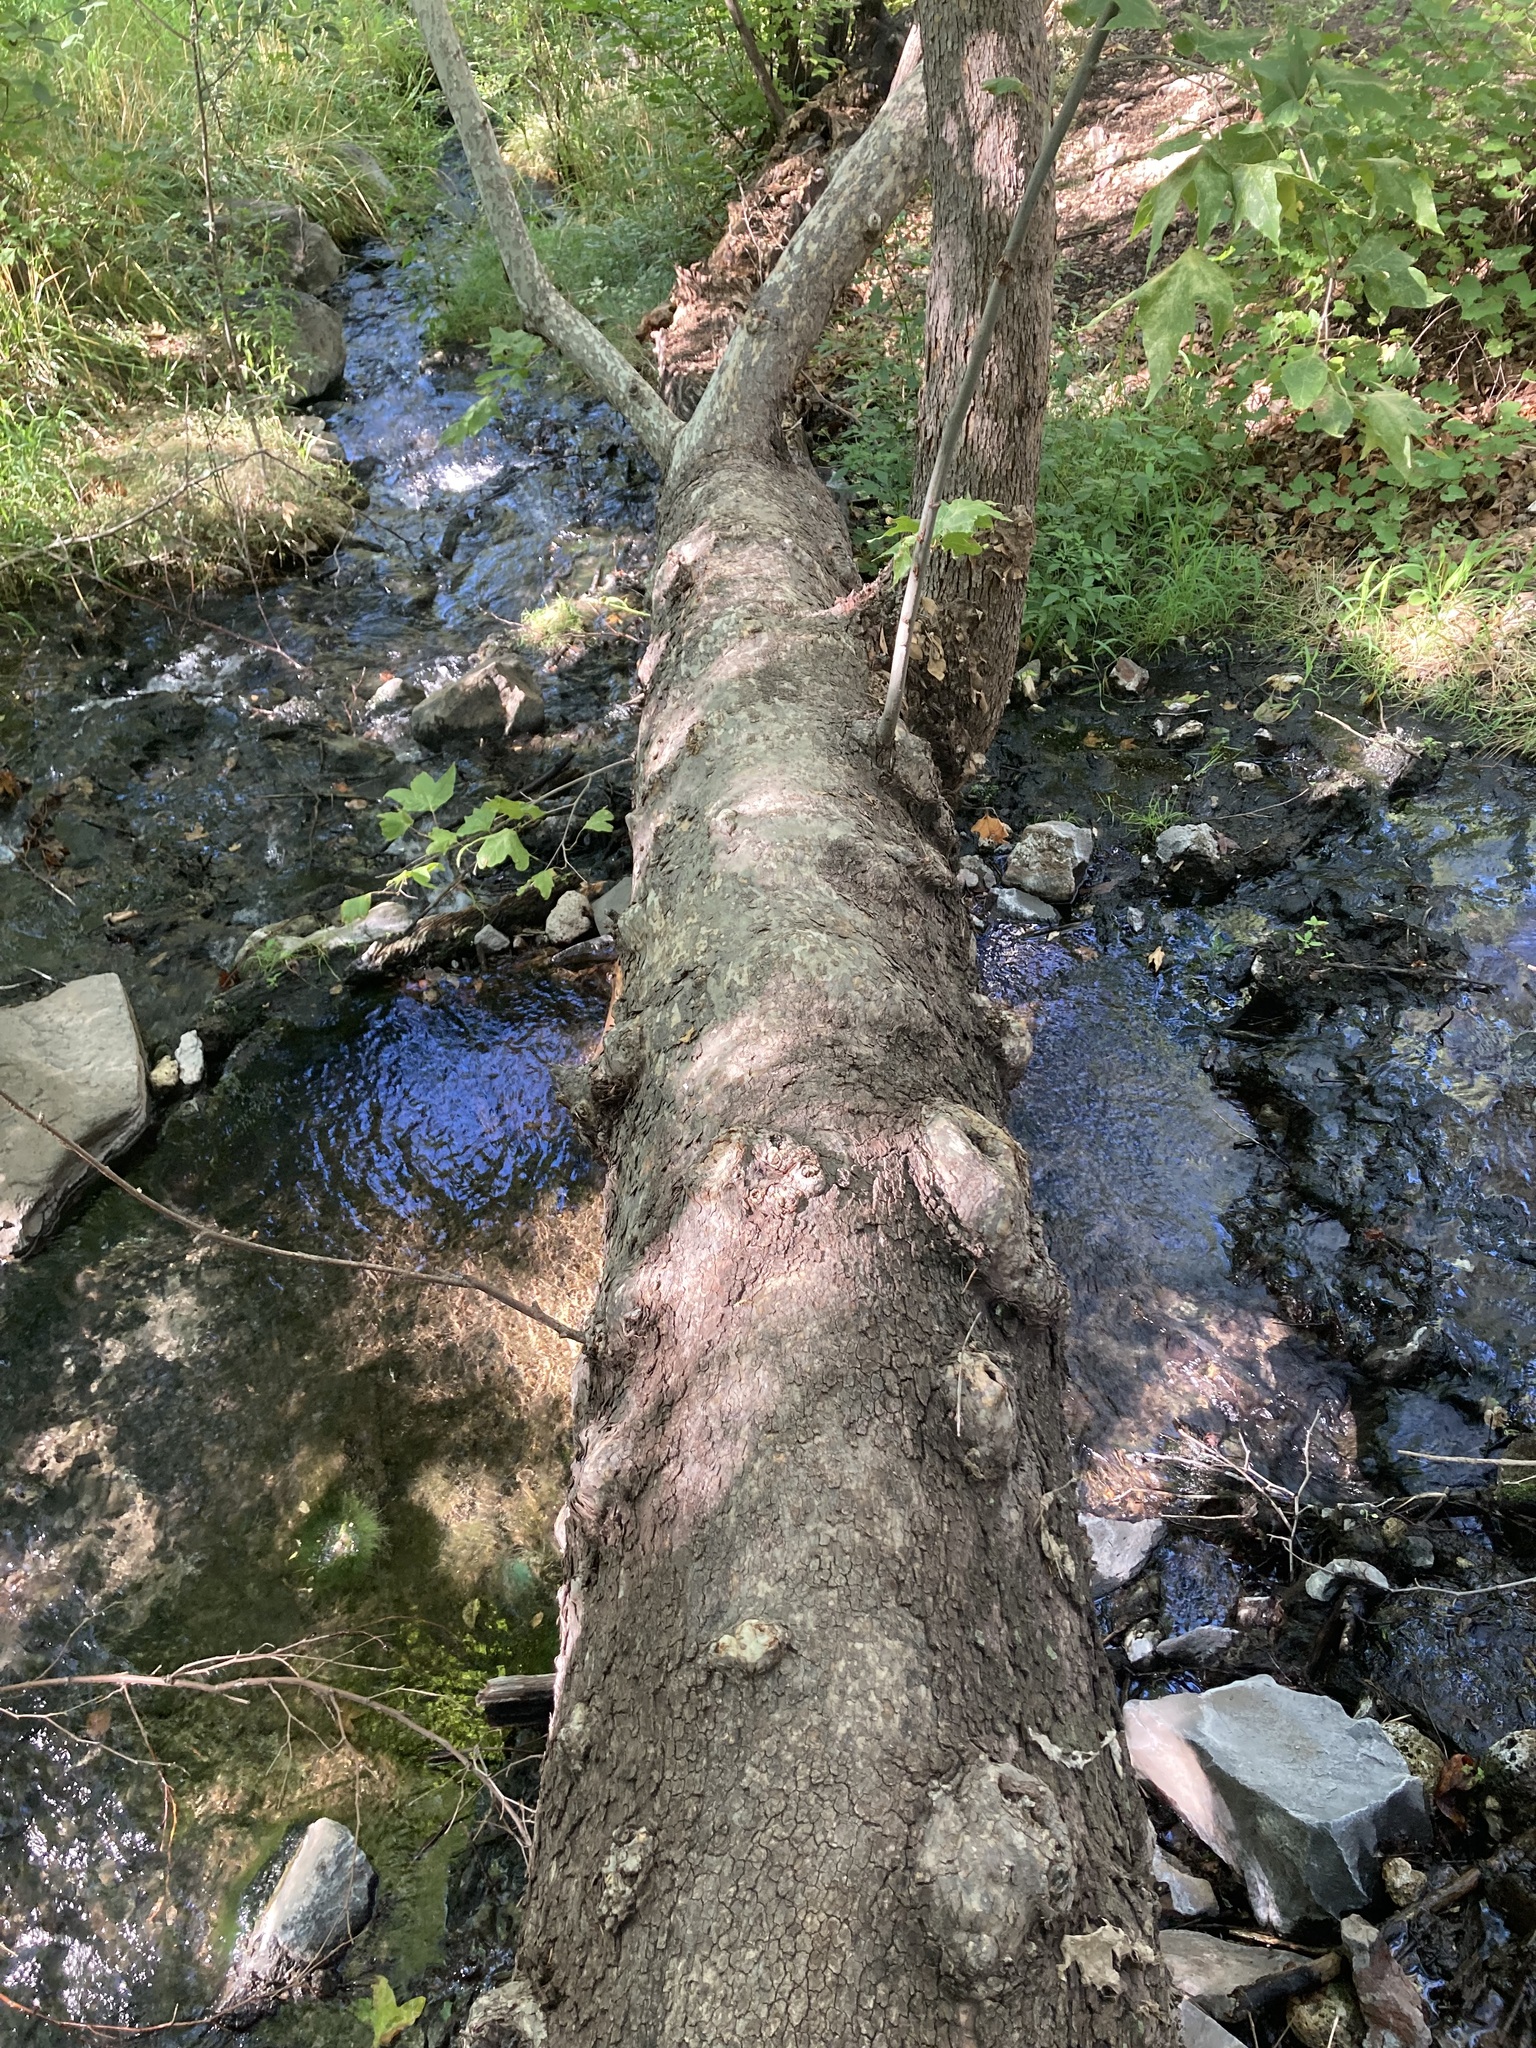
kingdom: Plantae
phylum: Tracheophyta
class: Magnoliopsida
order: Proteales
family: Platanaceae
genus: Platanus
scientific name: Platanus wrightii
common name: Arizona sycamore
